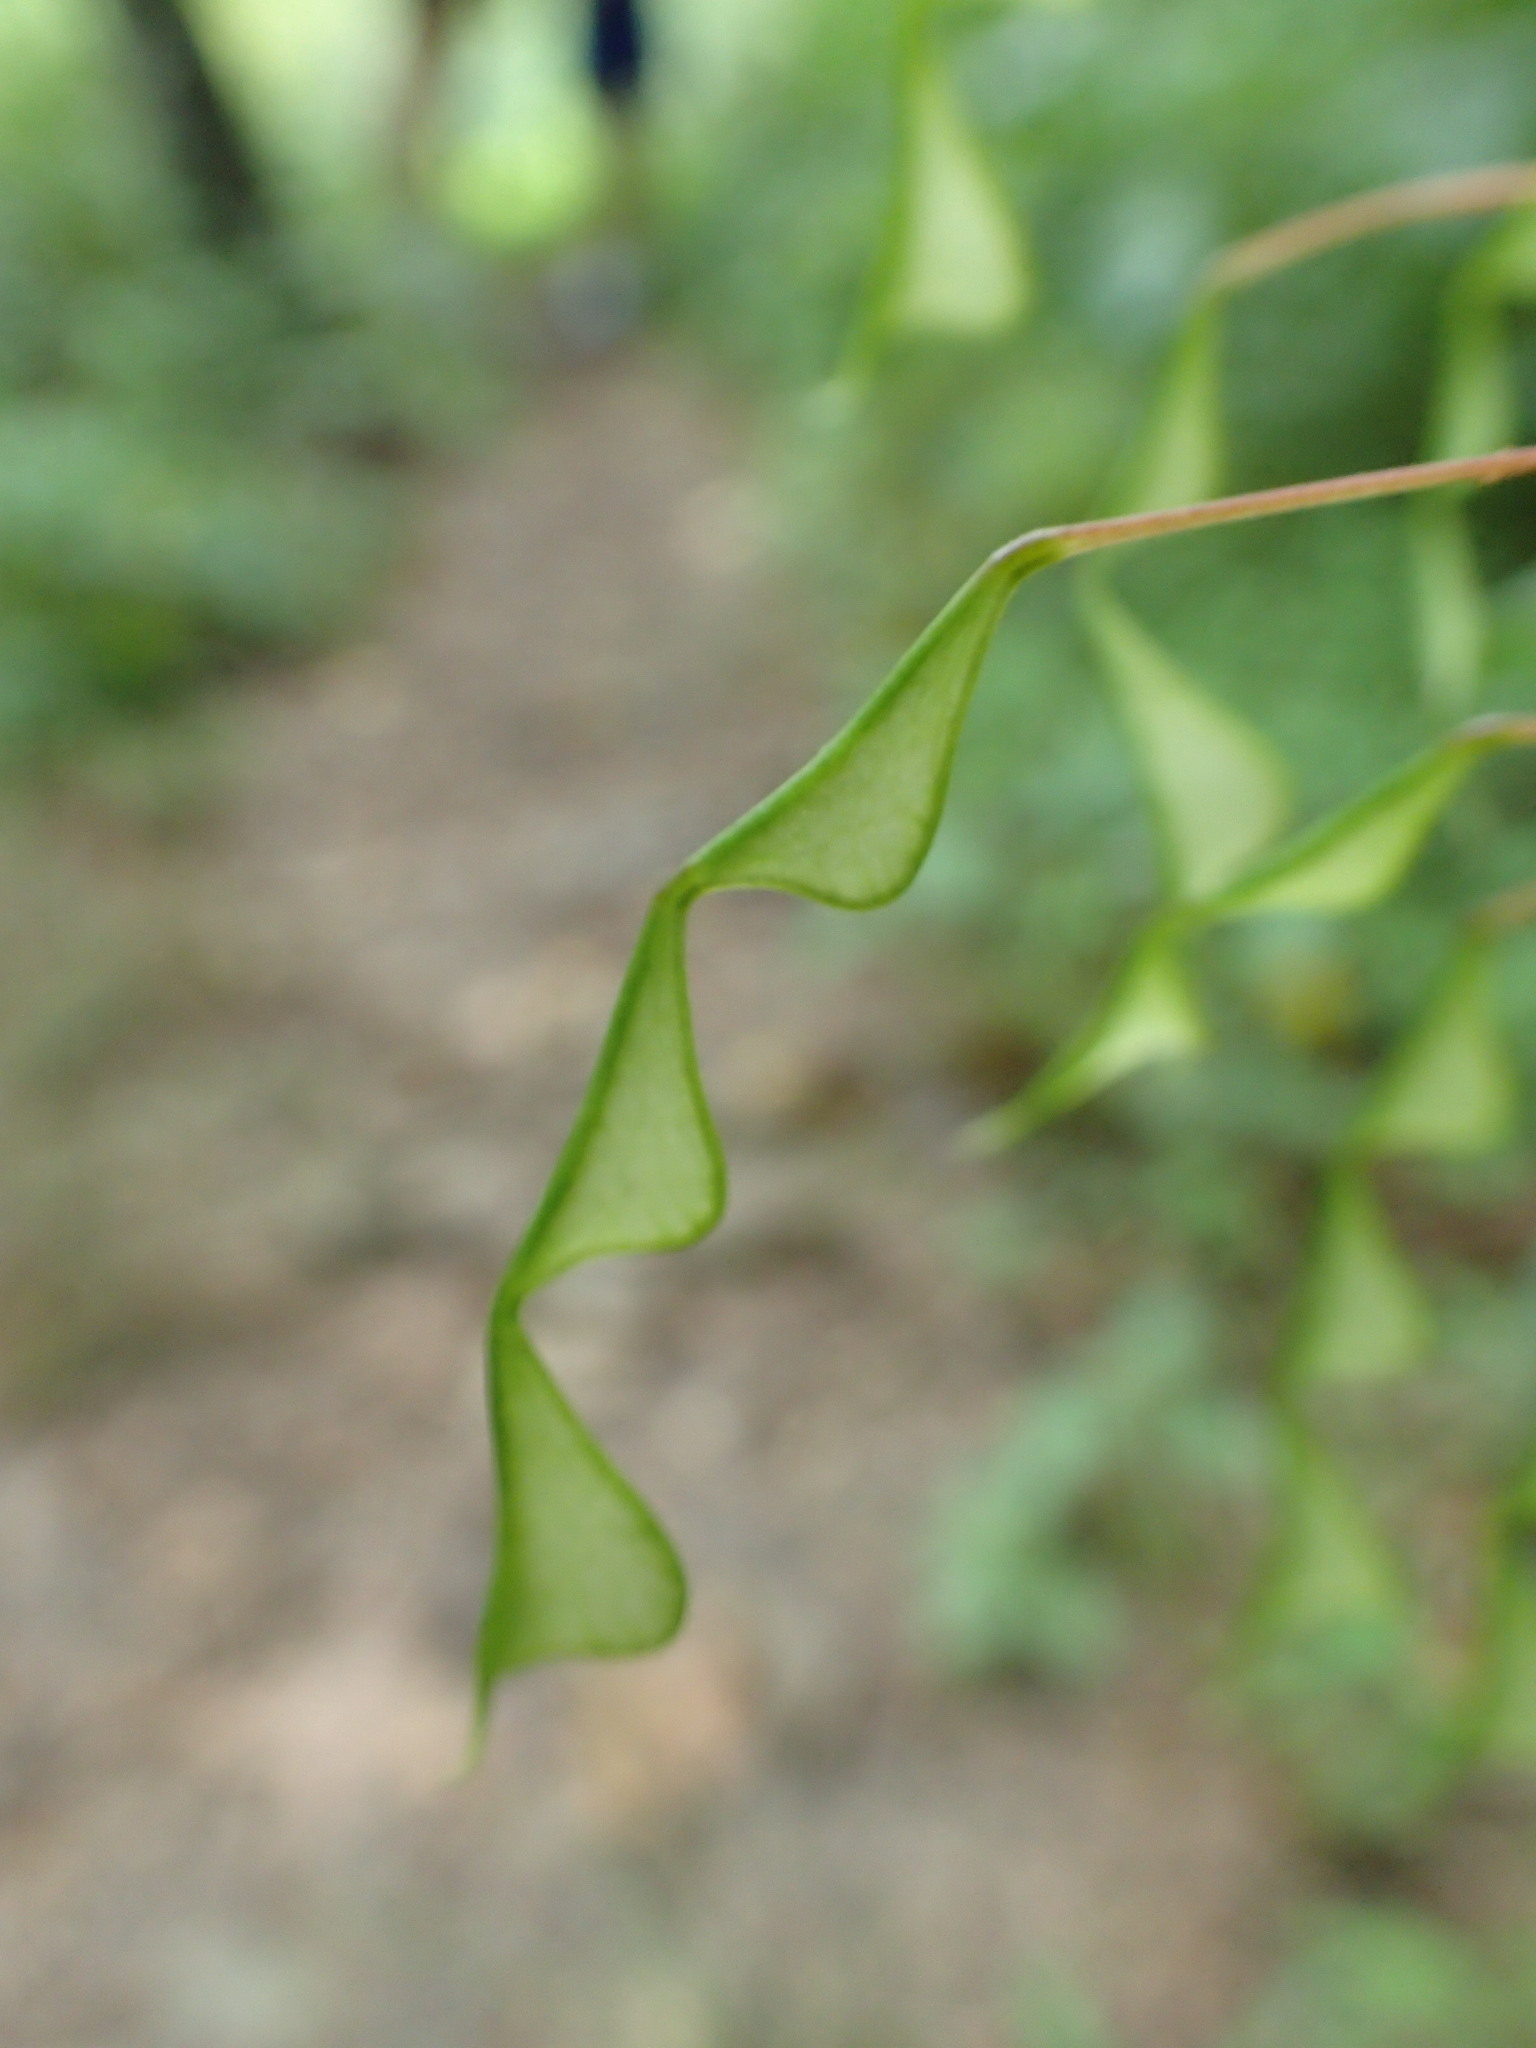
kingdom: Plantae
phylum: Tracheophyta
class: Magnoliopsida
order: Fabales
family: Fabaceae
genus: Hylodesmum
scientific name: Hylodesmum nudiflorum
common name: Bare-stemmed tick-trefoil
